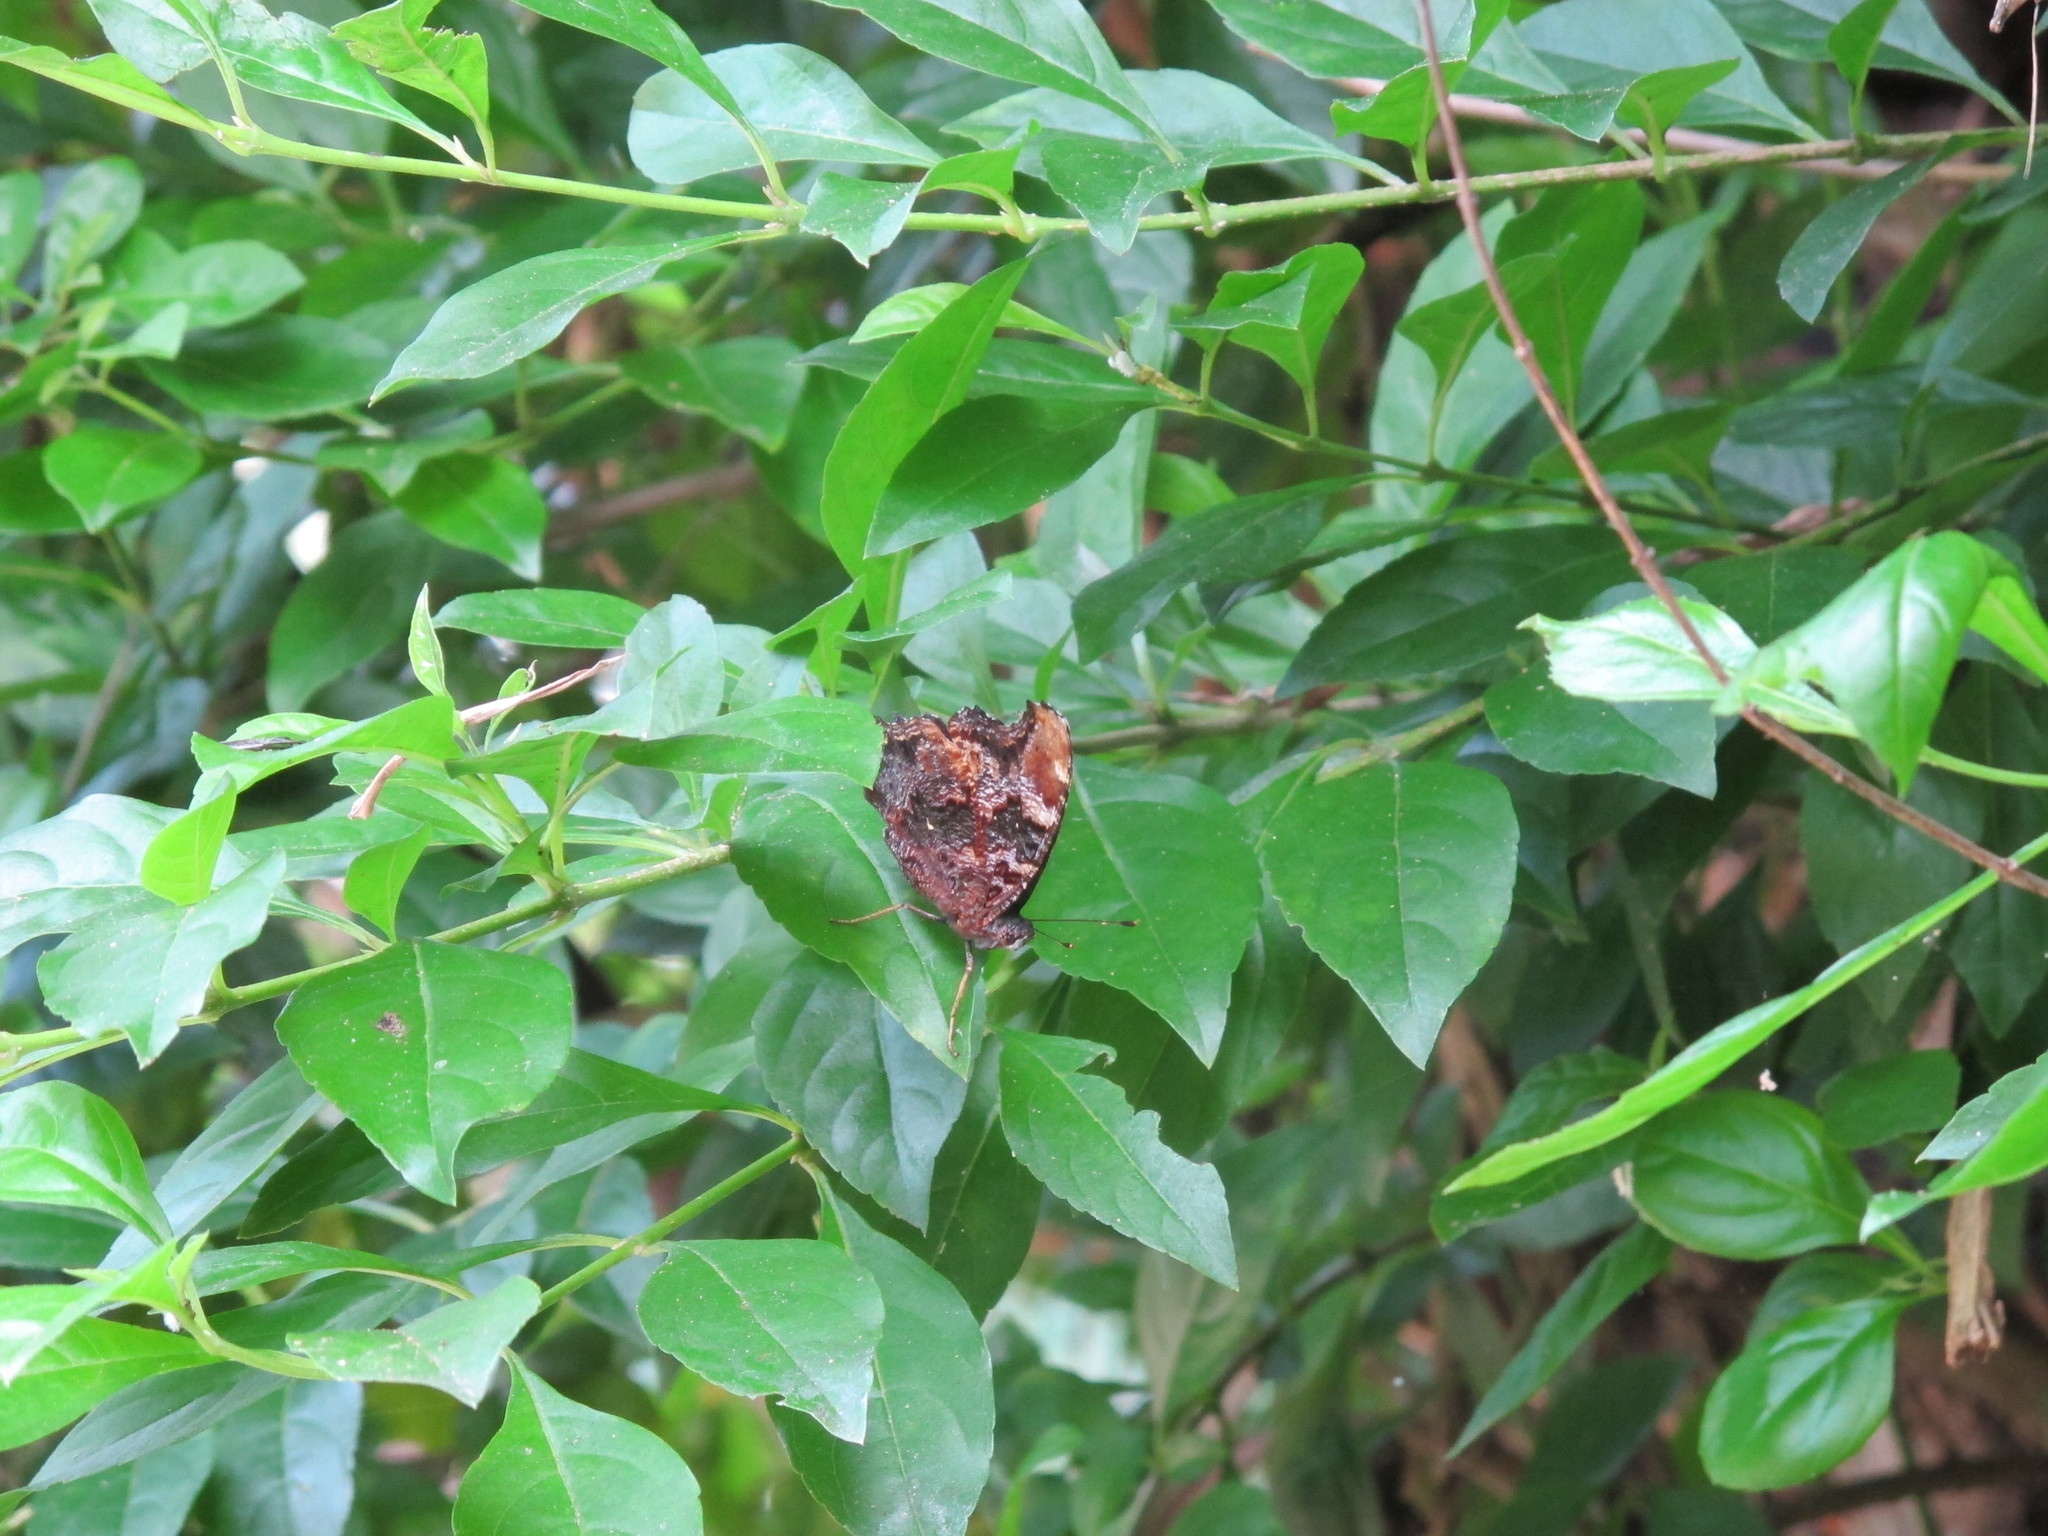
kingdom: Animalia
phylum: Arthropoda
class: Insecta
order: Lepidoptera
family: Nymphalidae
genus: Vanessa
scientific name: Vanessa Kaniska canace
